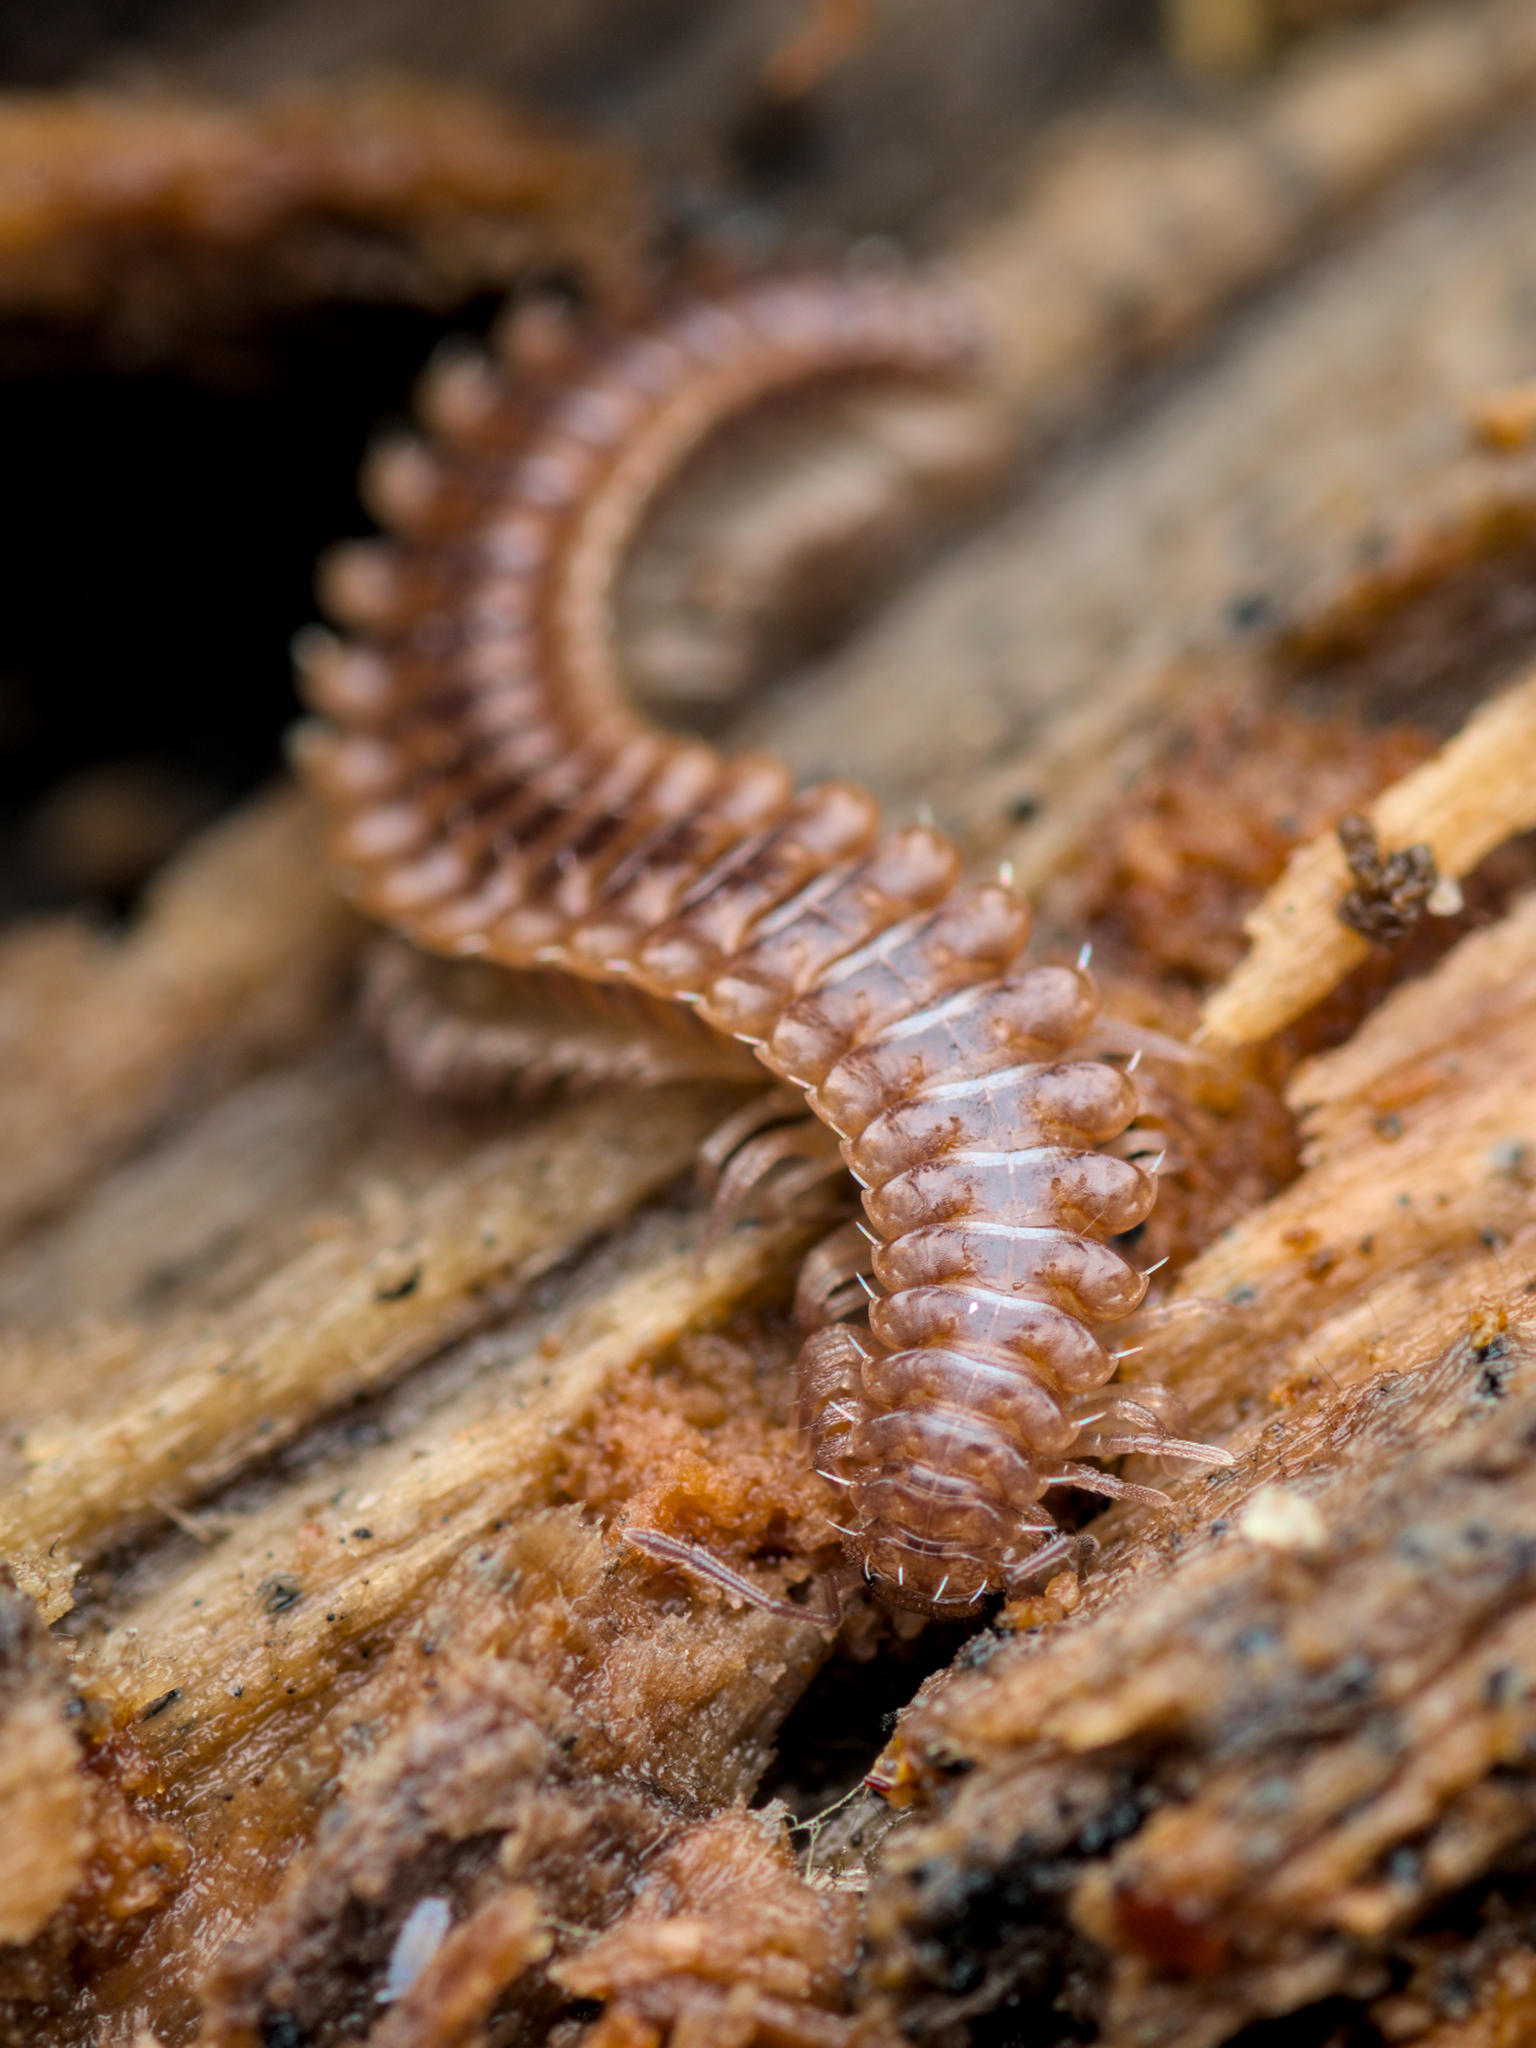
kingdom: Animalia
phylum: Arthropoda
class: Diplopoda
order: Chordeumatida
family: Craspedosomatidae
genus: Nanogona
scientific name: Nanogona polydesmoides
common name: Eyed flat-backed millipede
